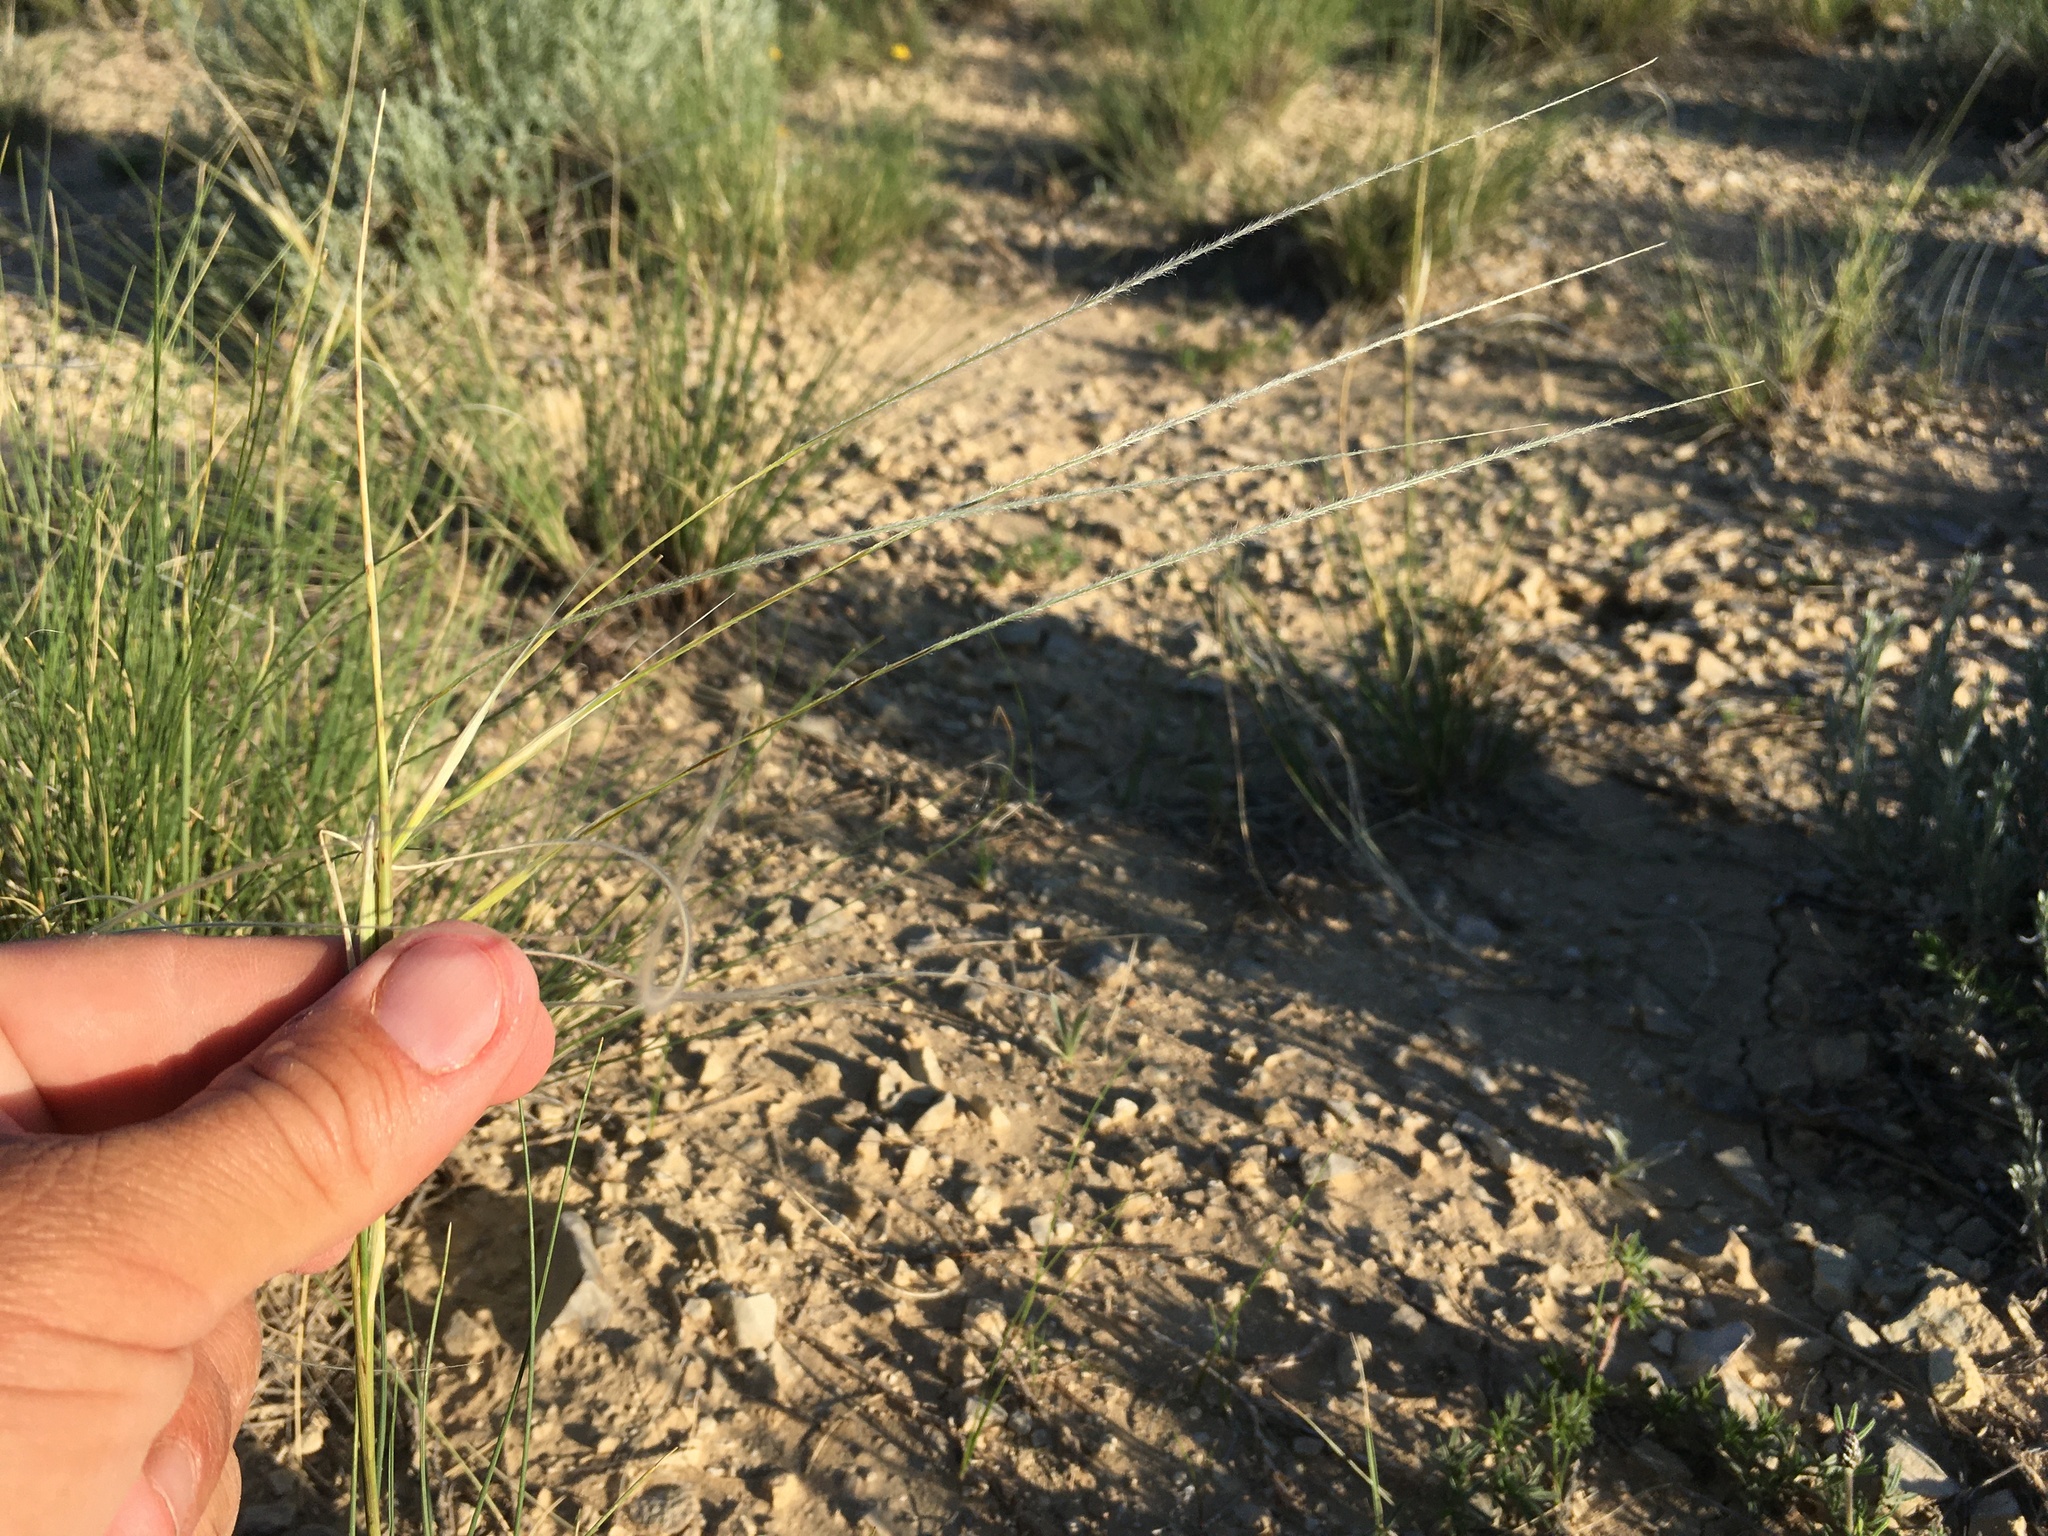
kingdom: Plantae
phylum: Tracheophyta
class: Liliopsida
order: Poales
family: Poaceae
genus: Hesperostipa
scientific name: Hesperostipa neomexicana
